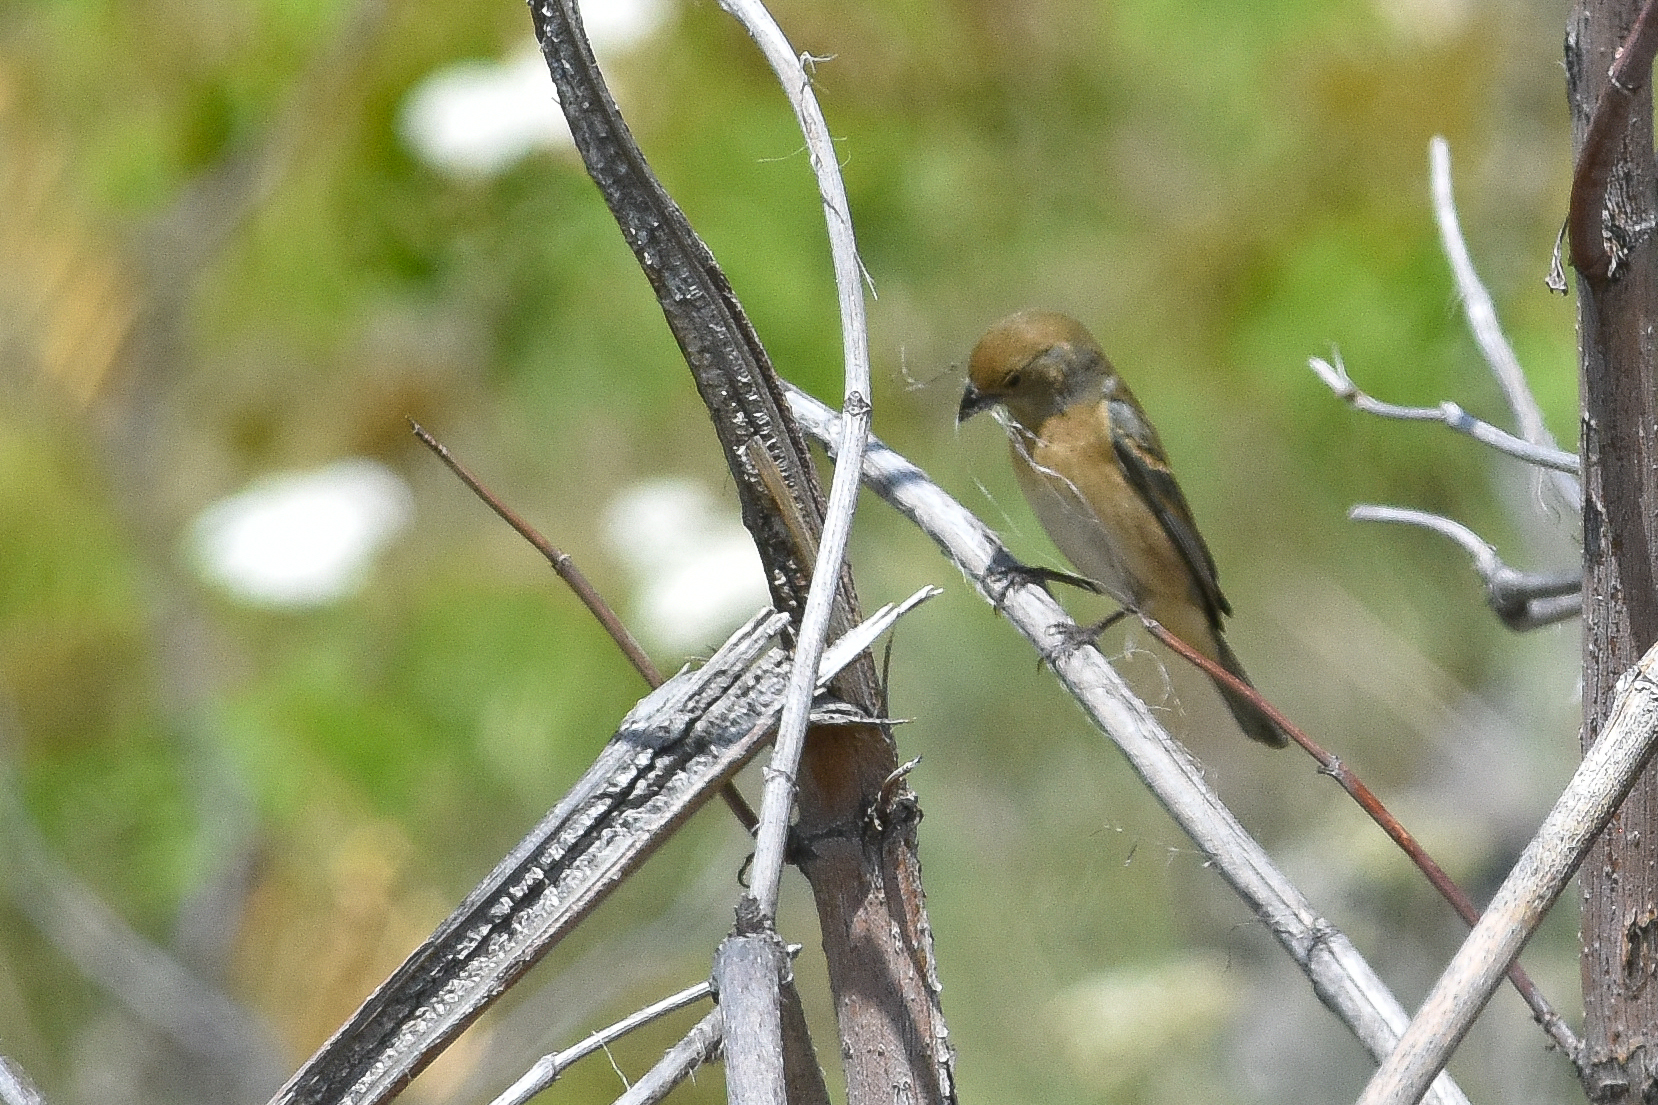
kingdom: Animalia
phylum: Chordata
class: Aves
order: Passeriformes
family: Cardinalidae
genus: Passerina
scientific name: Passerina amoena
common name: Lazuli bunting
